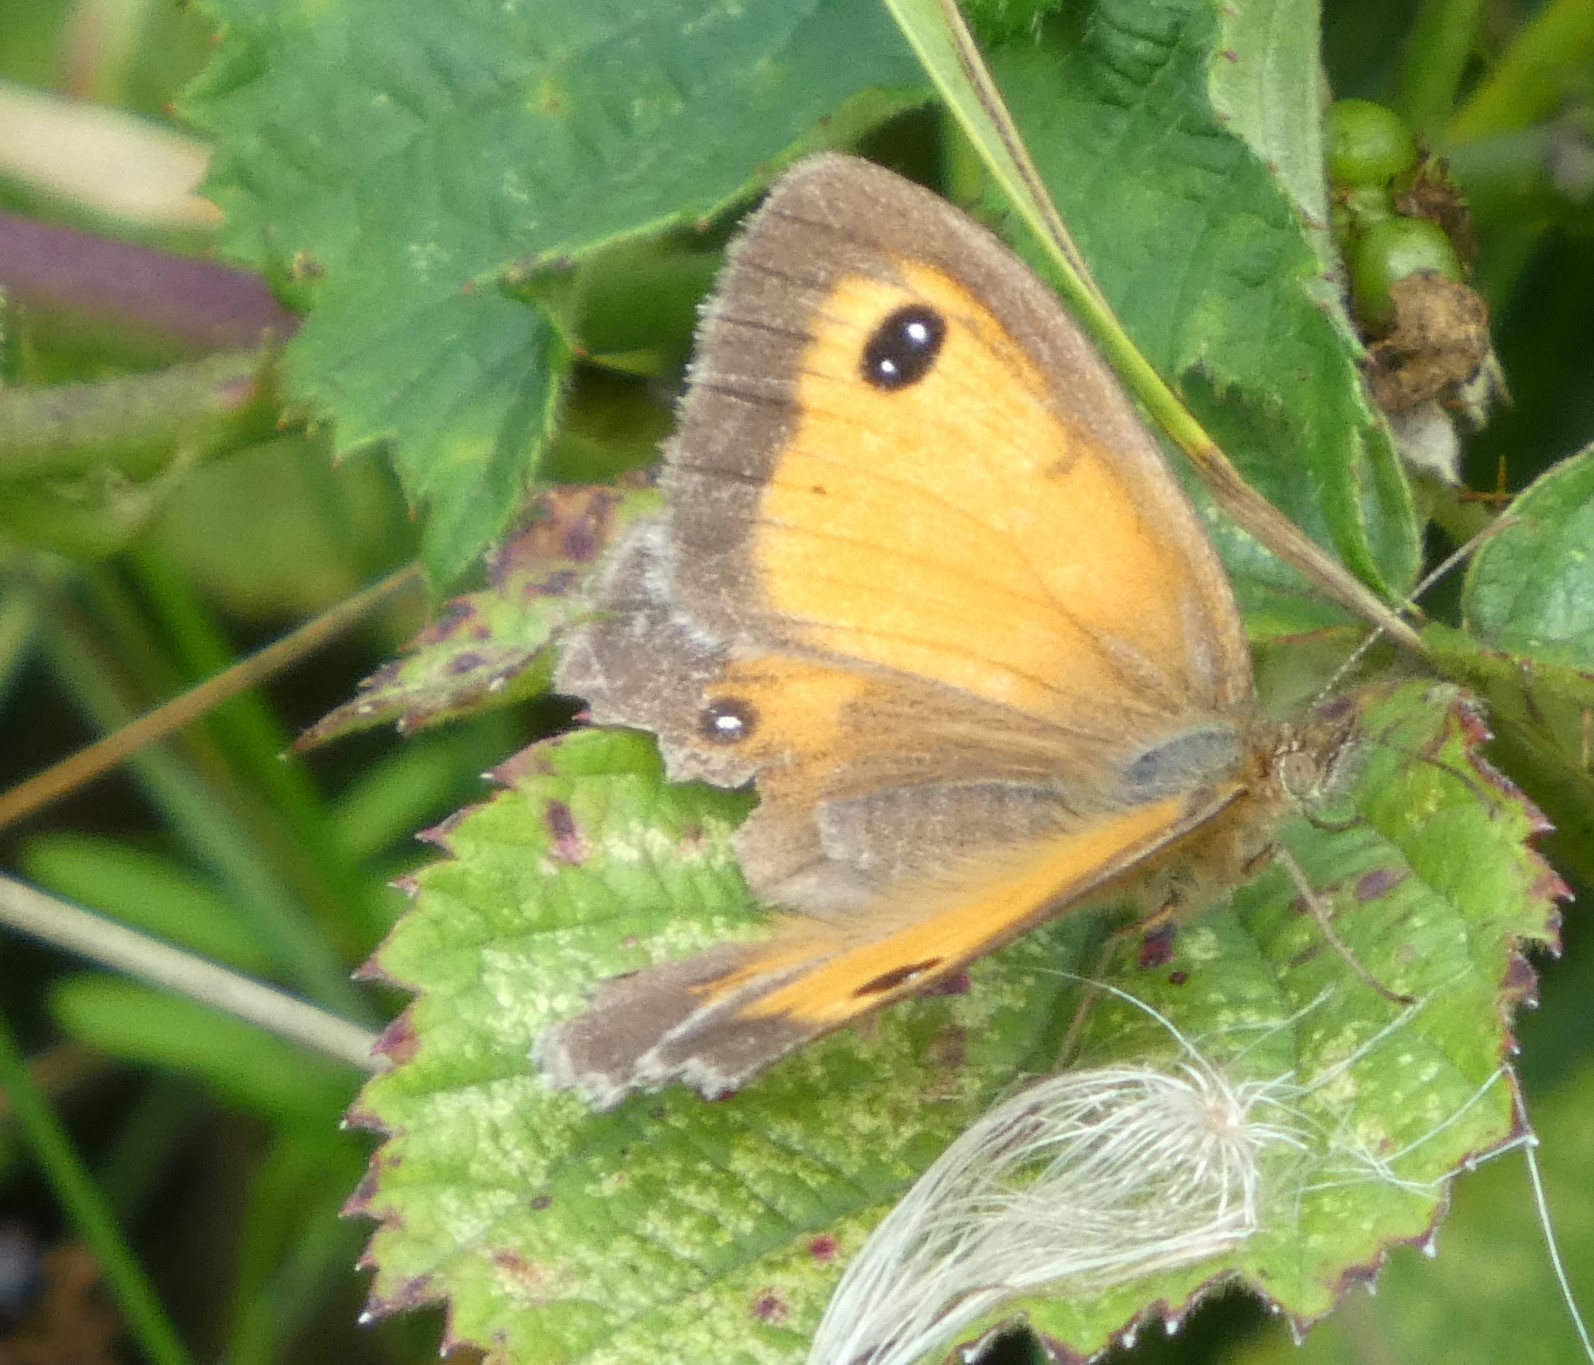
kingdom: Animalia
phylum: Arthropoda
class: Insecta
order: Lepidoptera
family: Nymphalidae
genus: Pyronia
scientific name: Pyronia tithonus
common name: Gatekeeper
